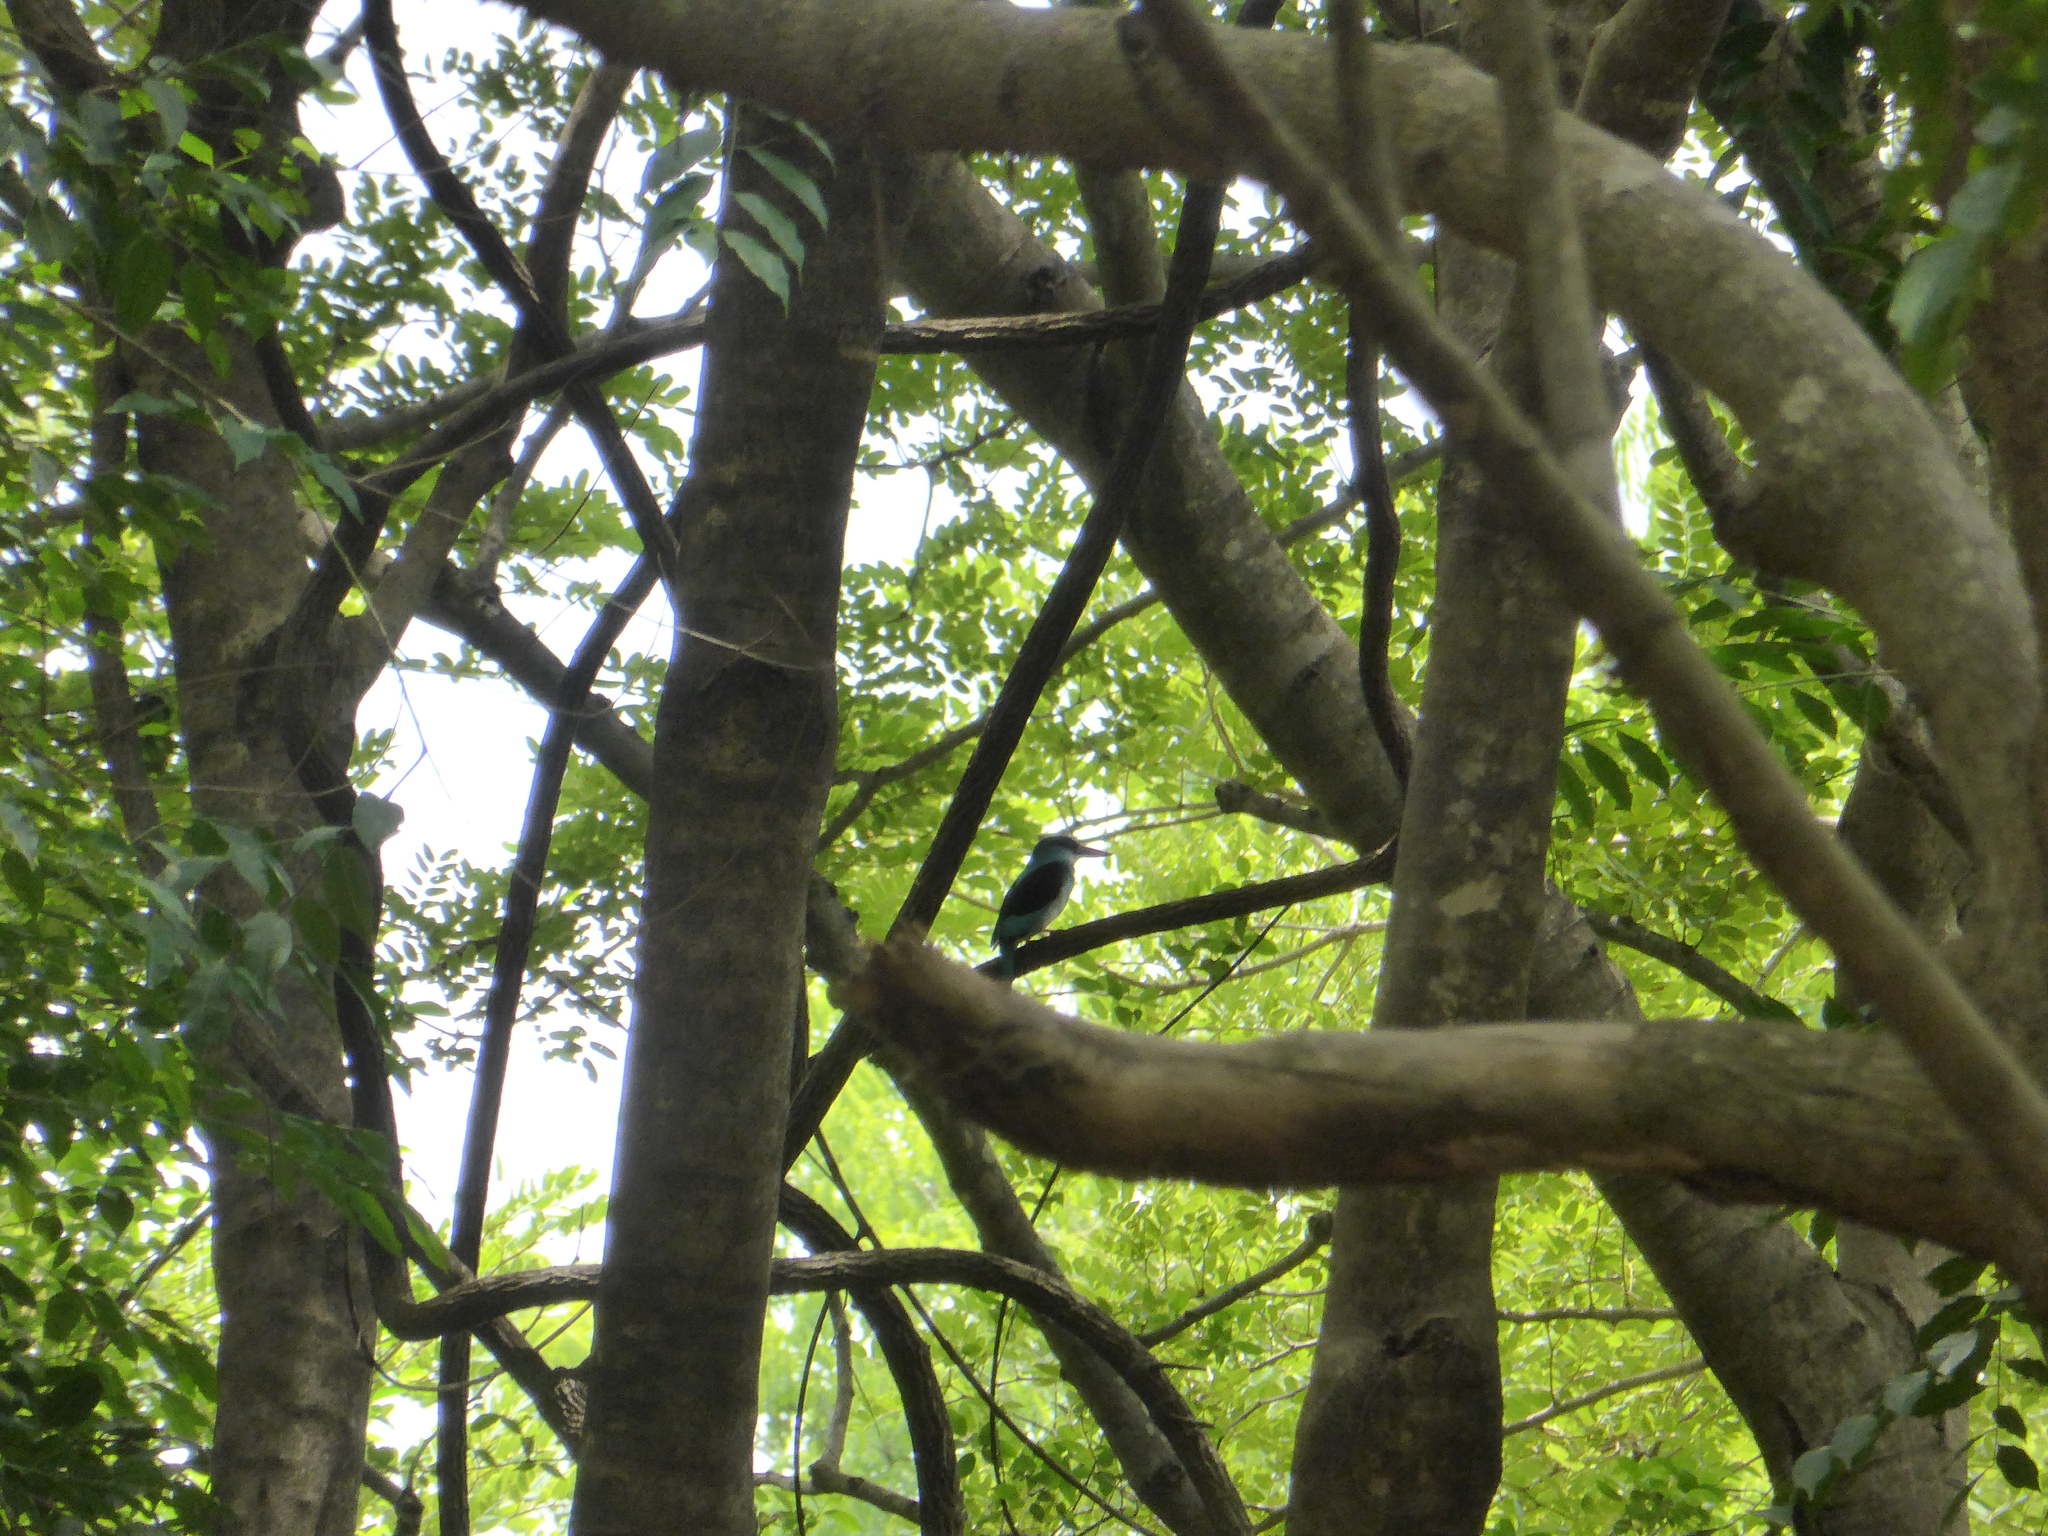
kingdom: Animalia
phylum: Chordata
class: Aves
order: Coraciiformes
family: Alcedinidae
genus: Halcyon
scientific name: Halcyon malimbica
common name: Blue-breasted kingfisher
